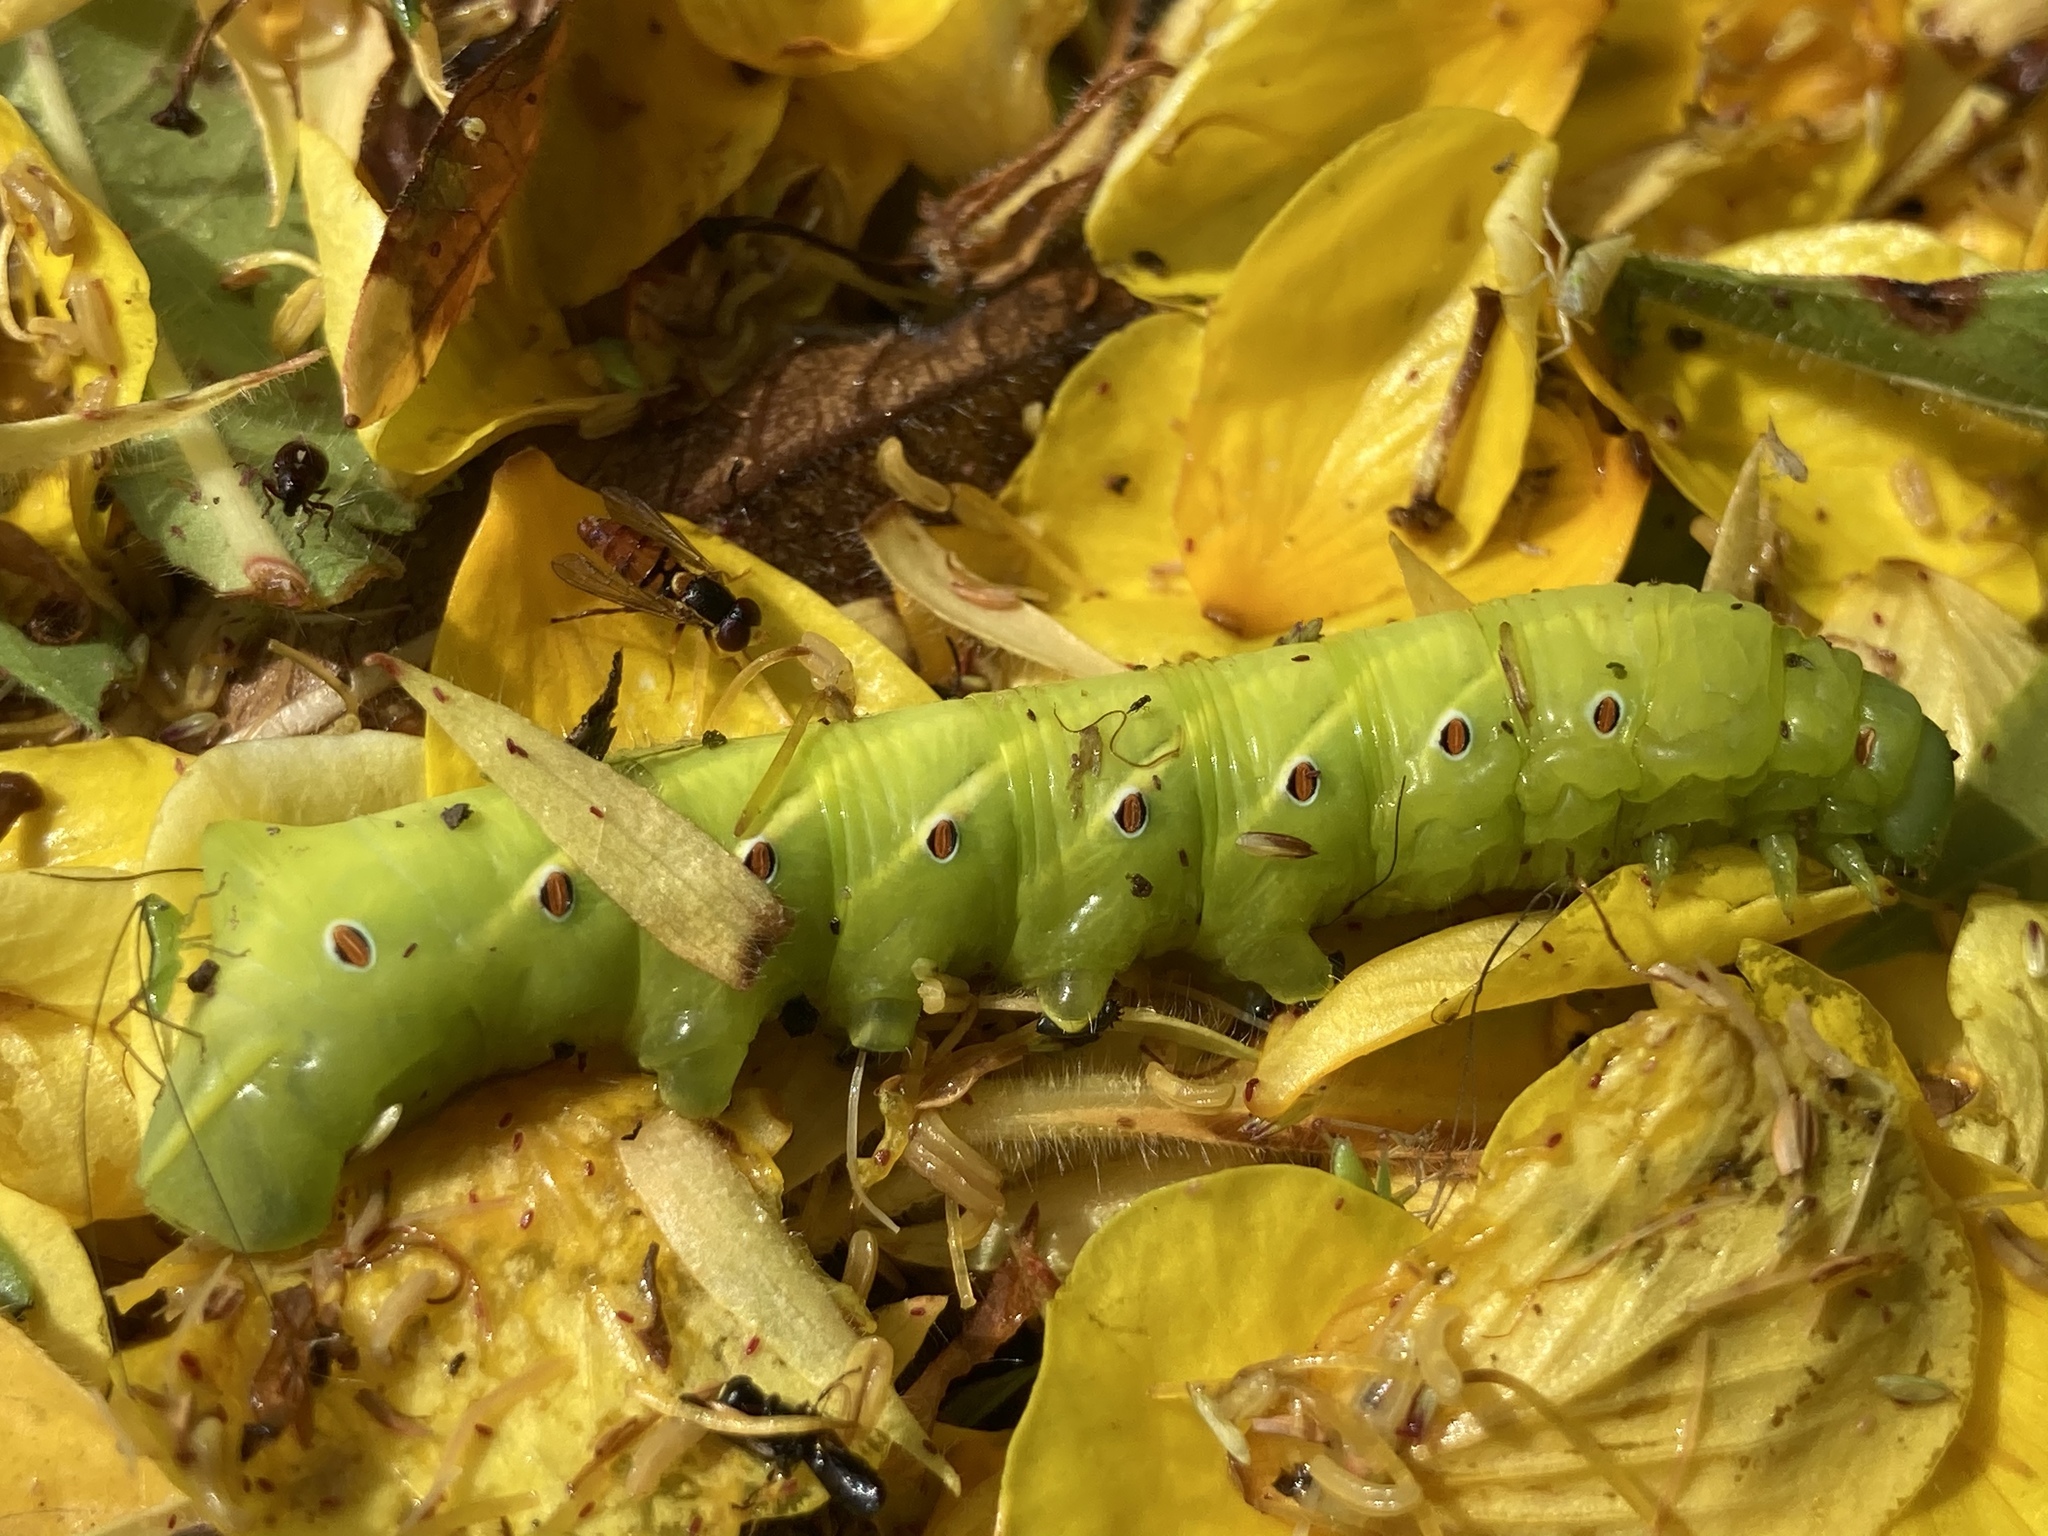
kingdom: Animalia
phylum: Arthropoda
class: Insecta
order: Lepidoptera
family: Sphingidae
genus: Eumorpha
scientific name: Eumorpha fasciatus
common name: Banded sphinx
